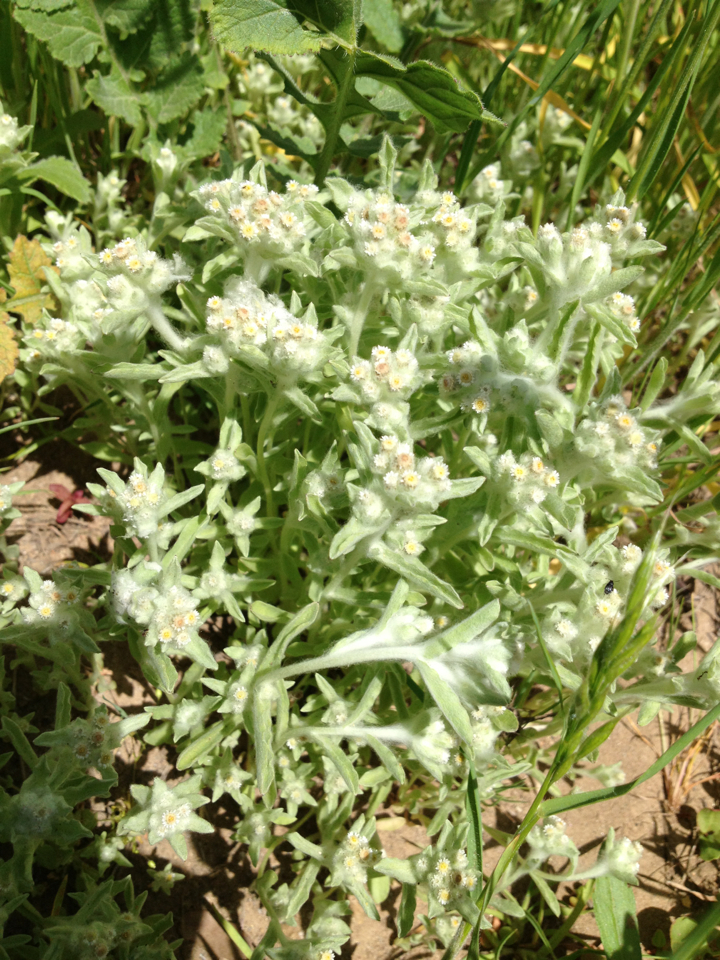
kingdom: Plantae
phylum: Tracheophyta
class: Magnoliopsida
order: Asterales
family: Asteraceae
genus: Gnaphalium
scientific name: Gnaphalium palustre
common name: Western marsh cudweed
